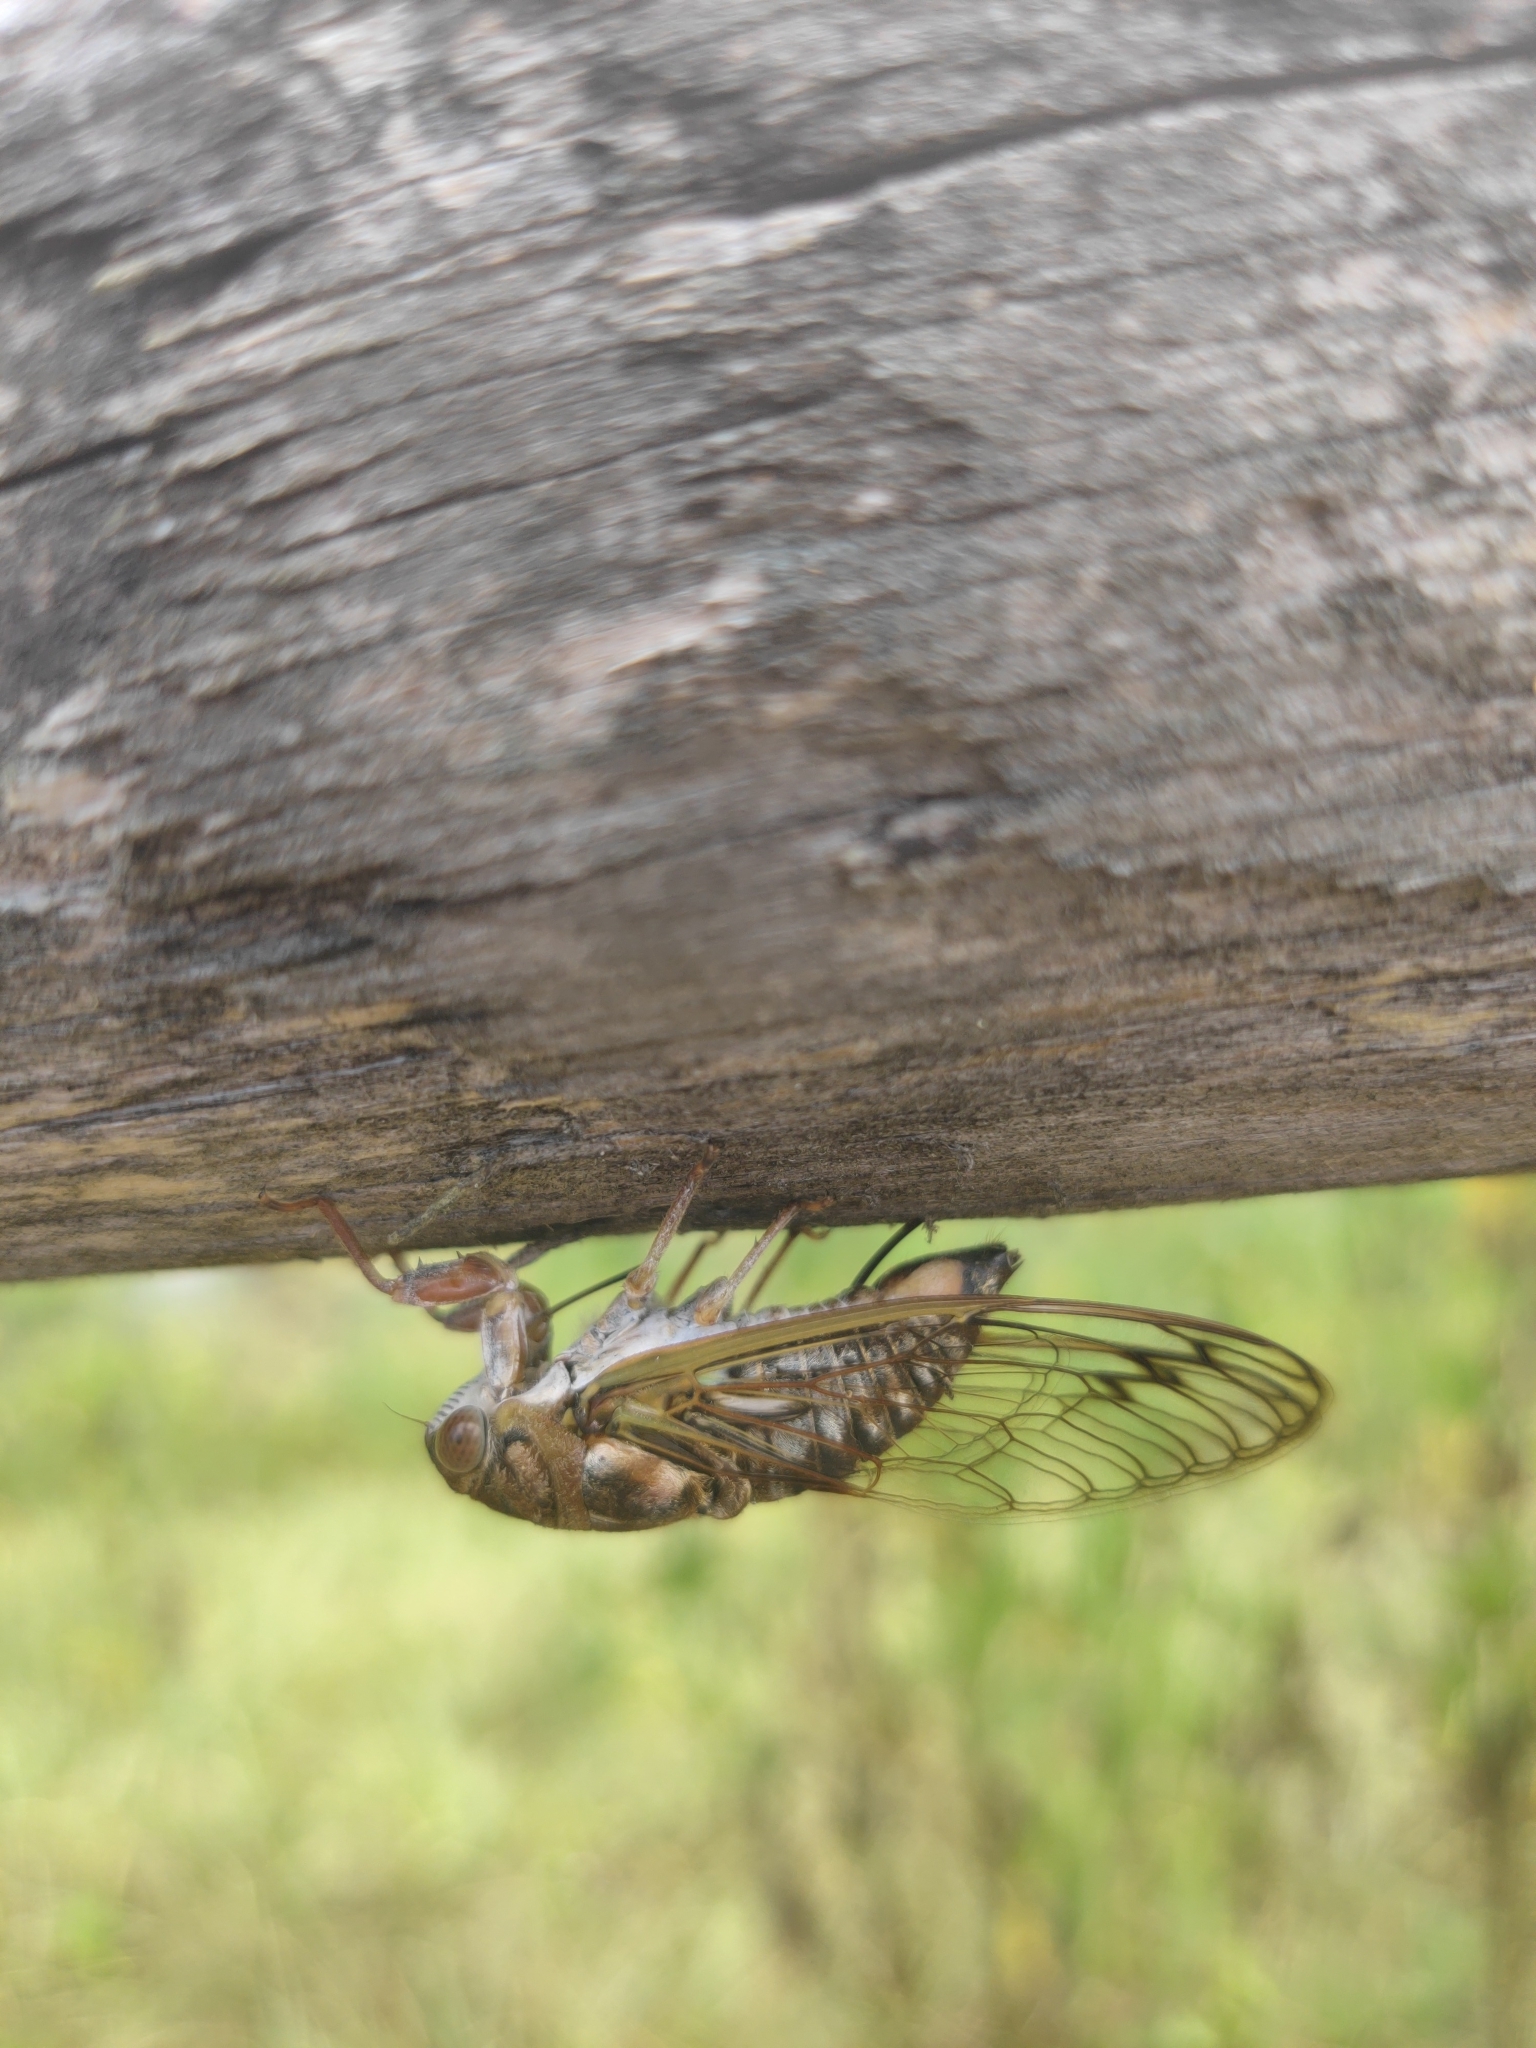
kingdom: Animalia
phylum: Arthropoda
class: Insecta
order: Hemiptera
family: Cicadidae
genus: Diceroprocta
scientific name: Diceroprocta olympusa
